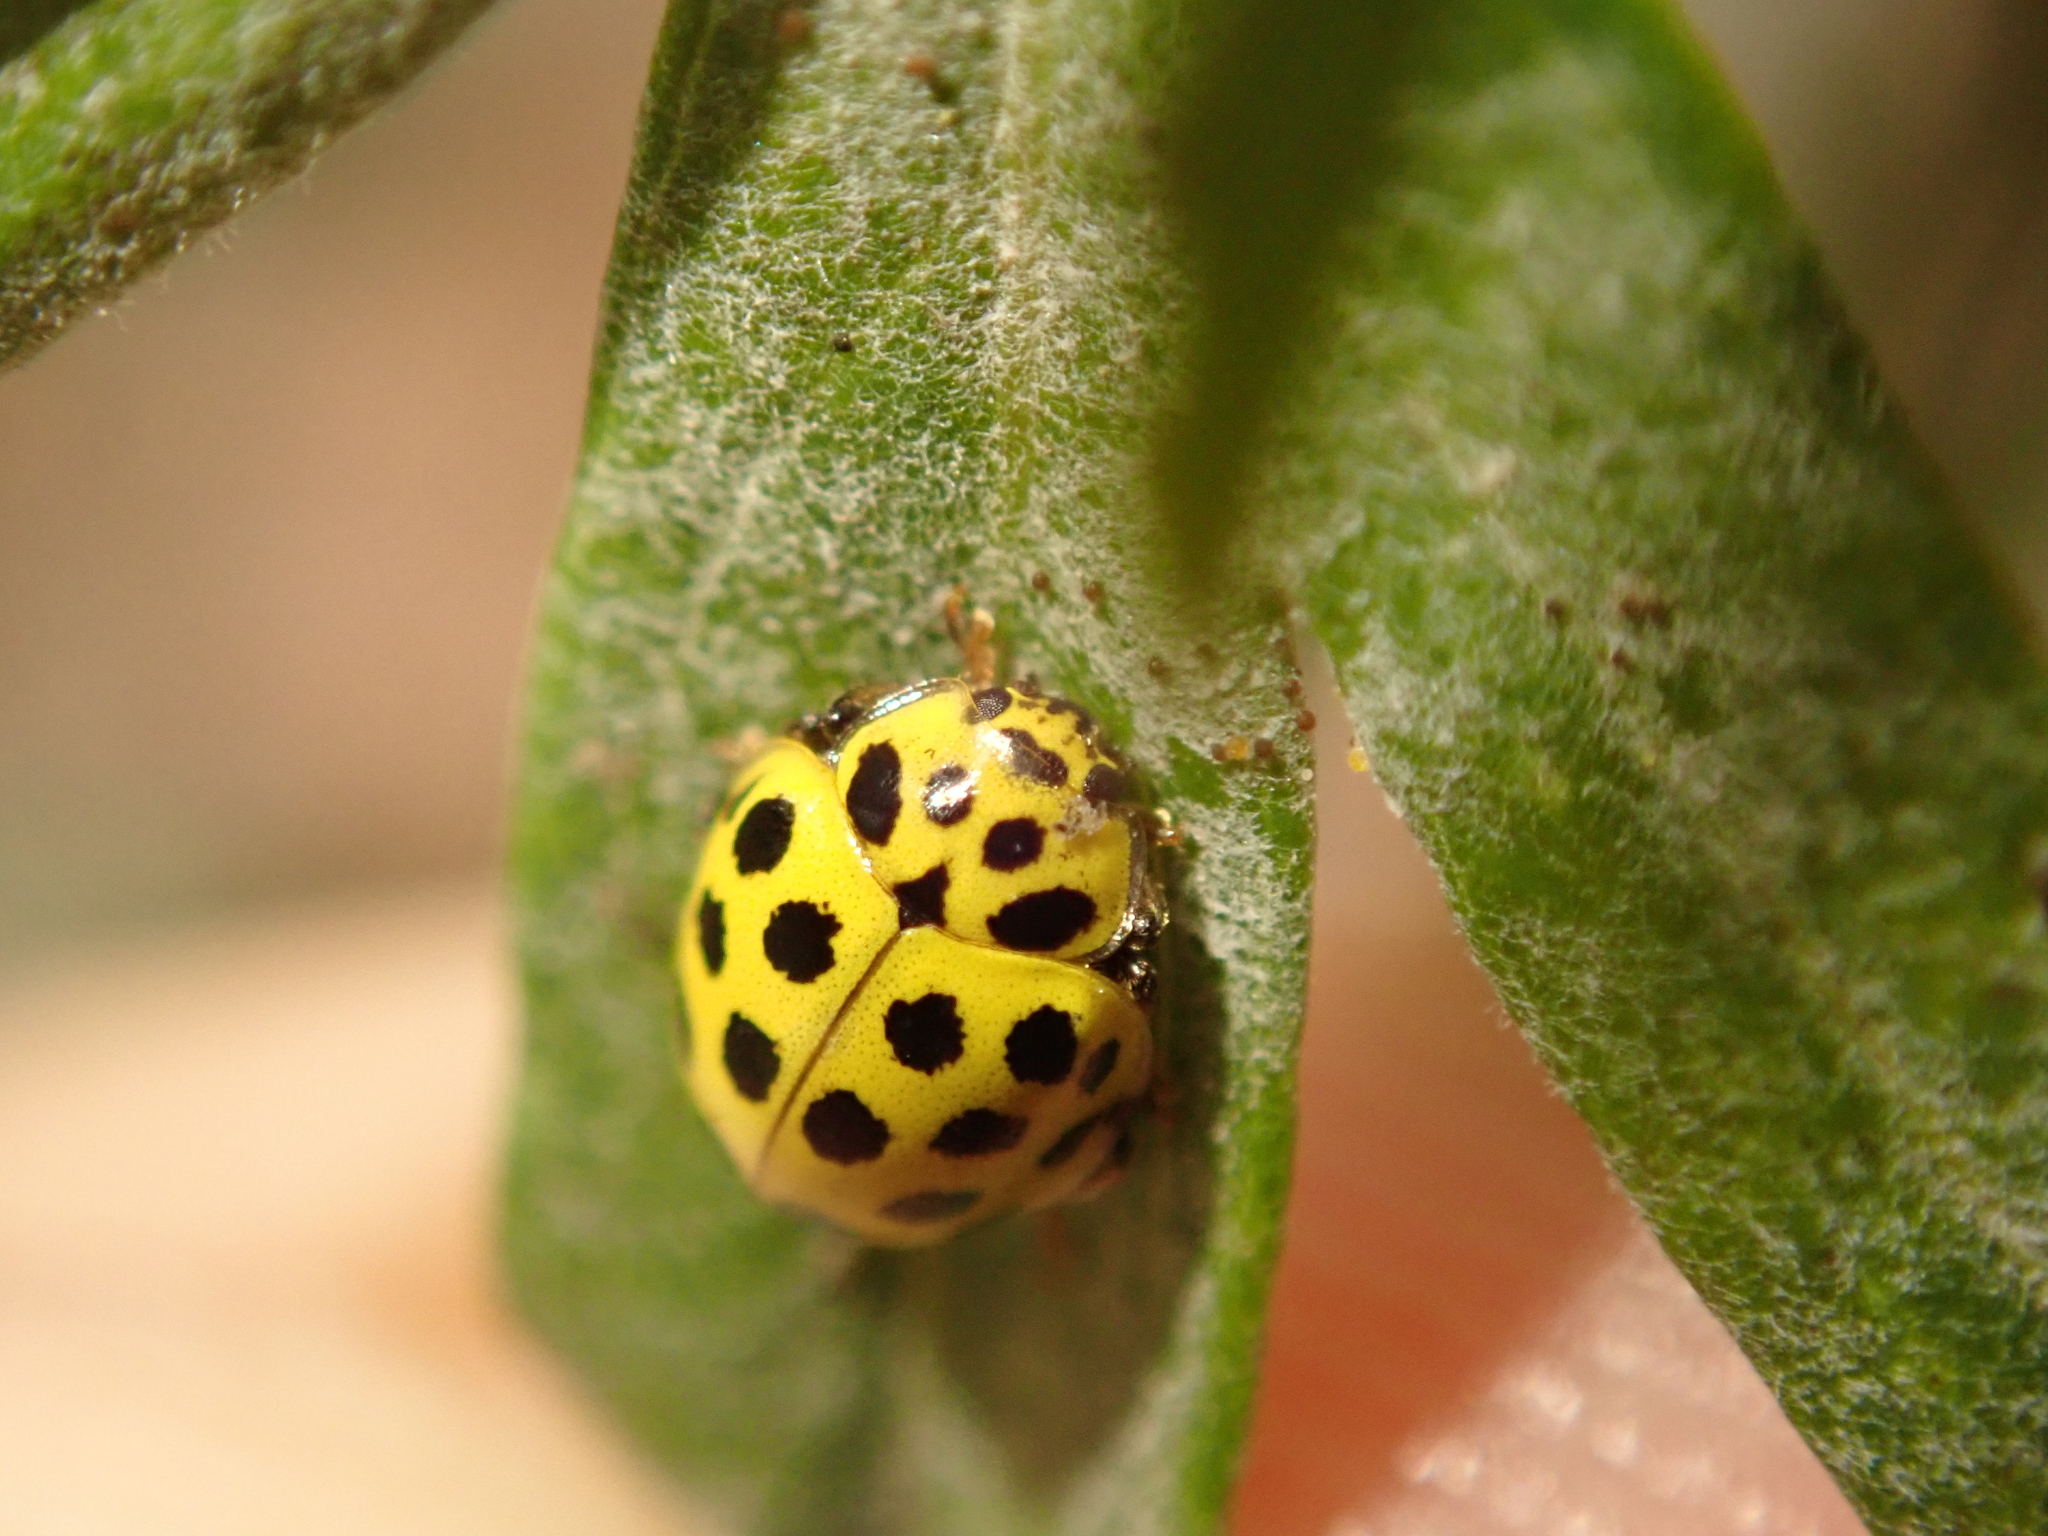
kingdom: Animalia
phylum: Arthropoda
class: Insecta
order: Coleoptera
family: Coccinellidae
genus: Psyllobora
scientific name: Psyllobora vigintiduopunctata
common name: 22-spot ladybird
